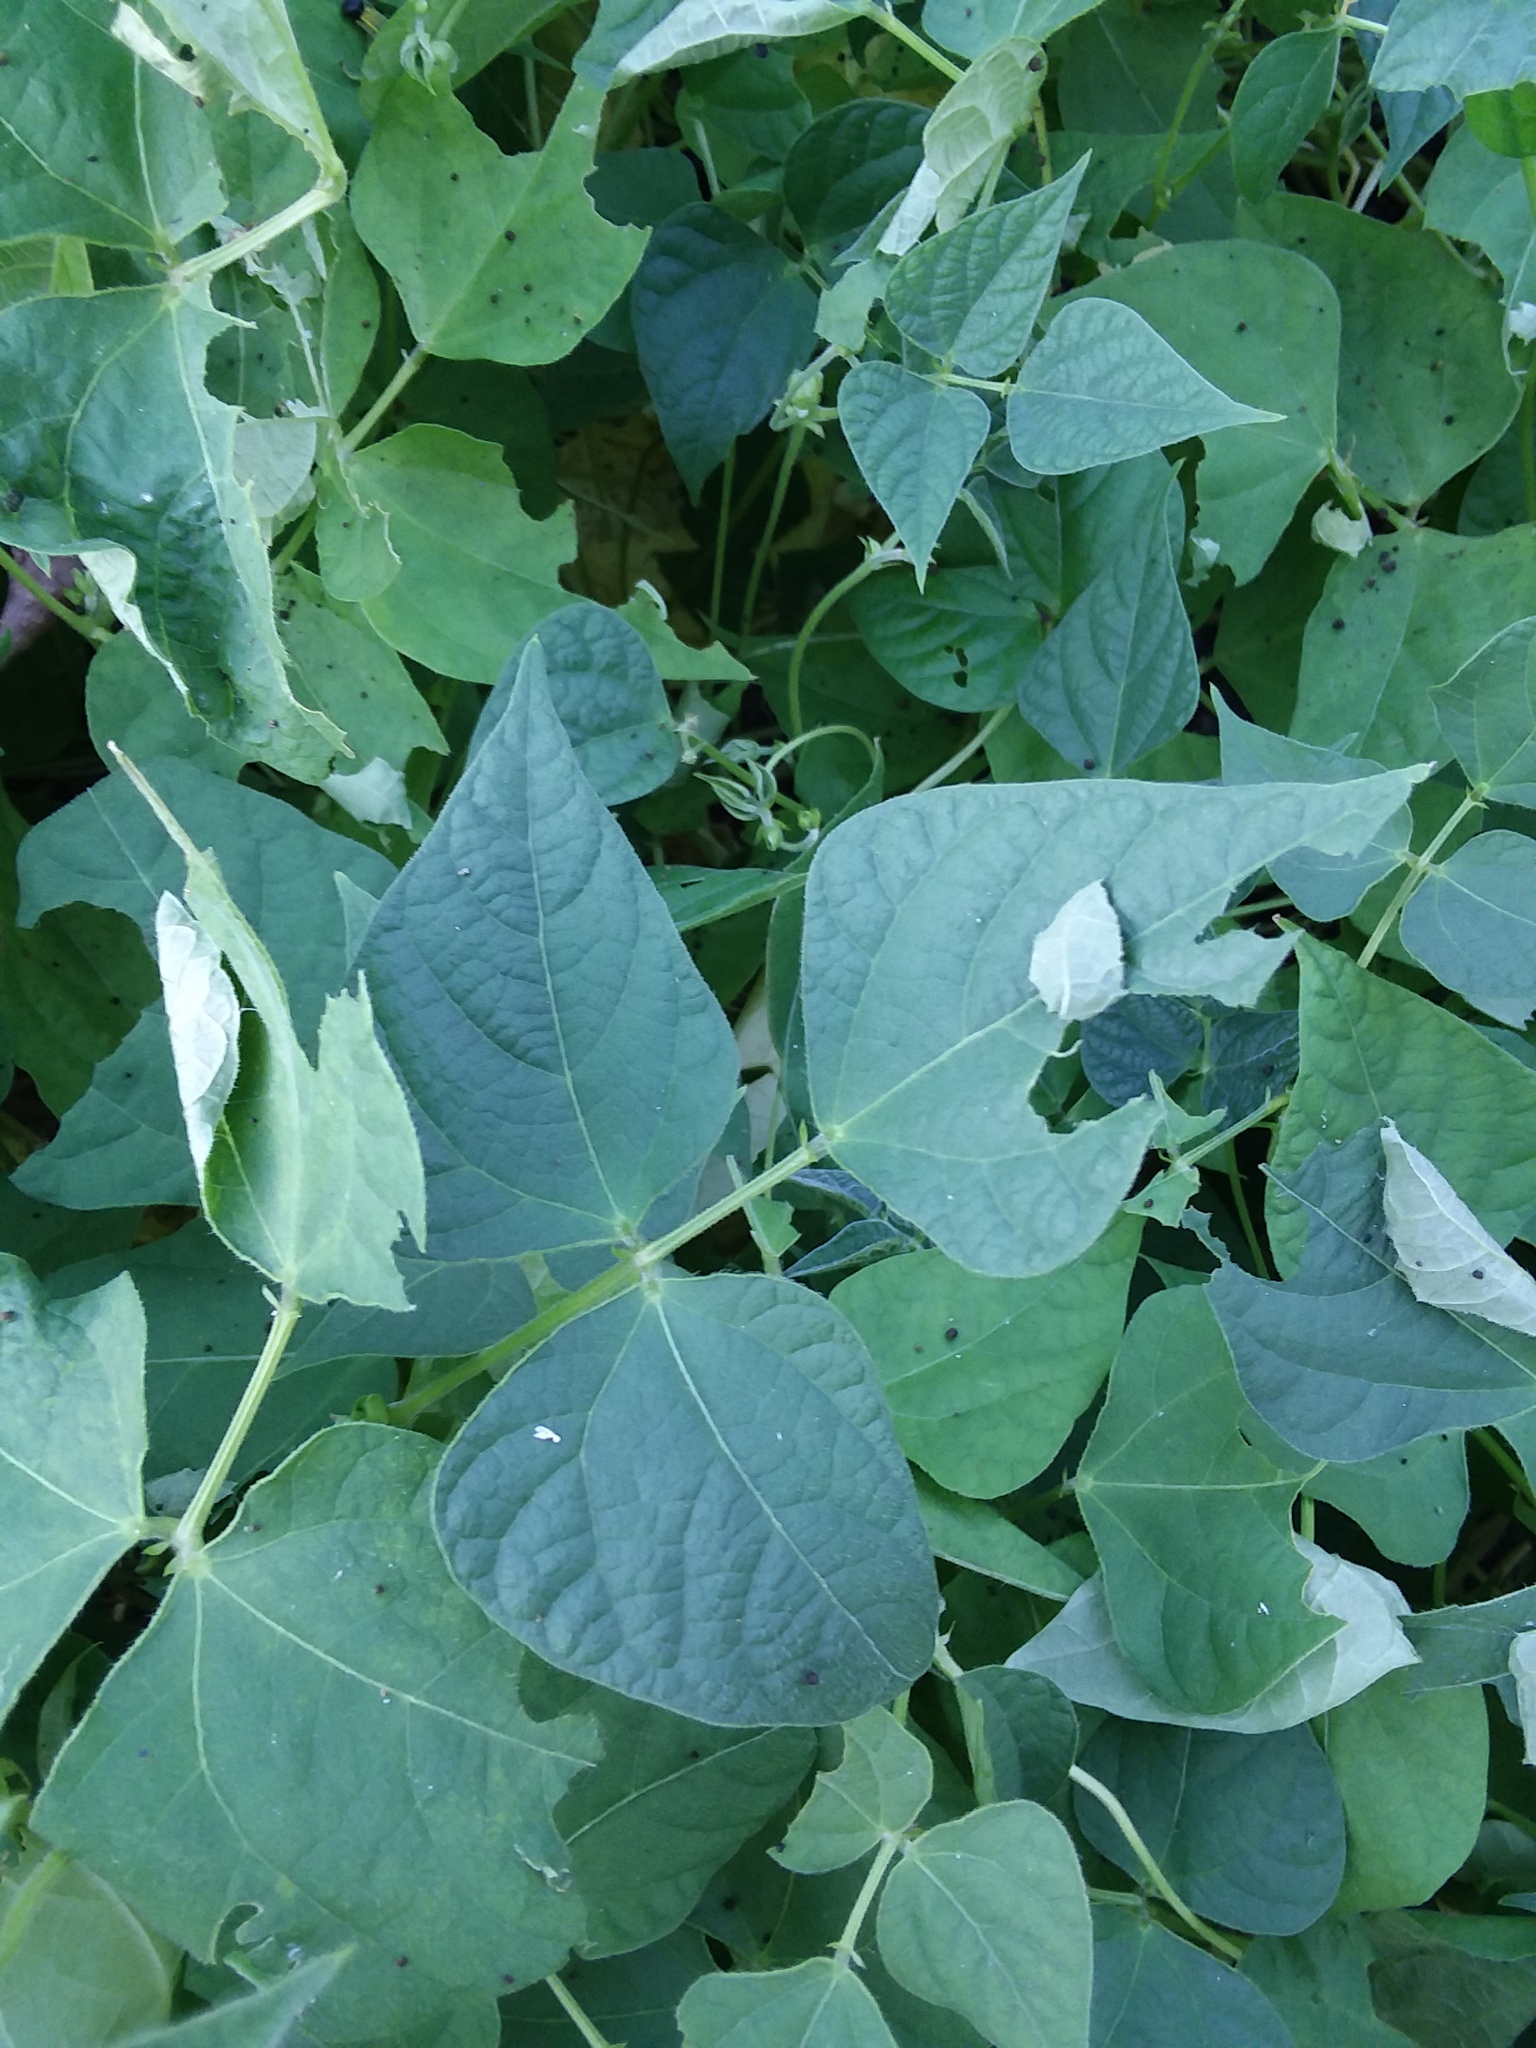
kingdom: Animalia
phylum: Arthropoda
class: Insecta
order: Lepidoptera
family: Hesperiidae
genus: Urbanus
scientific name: Urbanus proteus
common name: Long-tailed skipper
